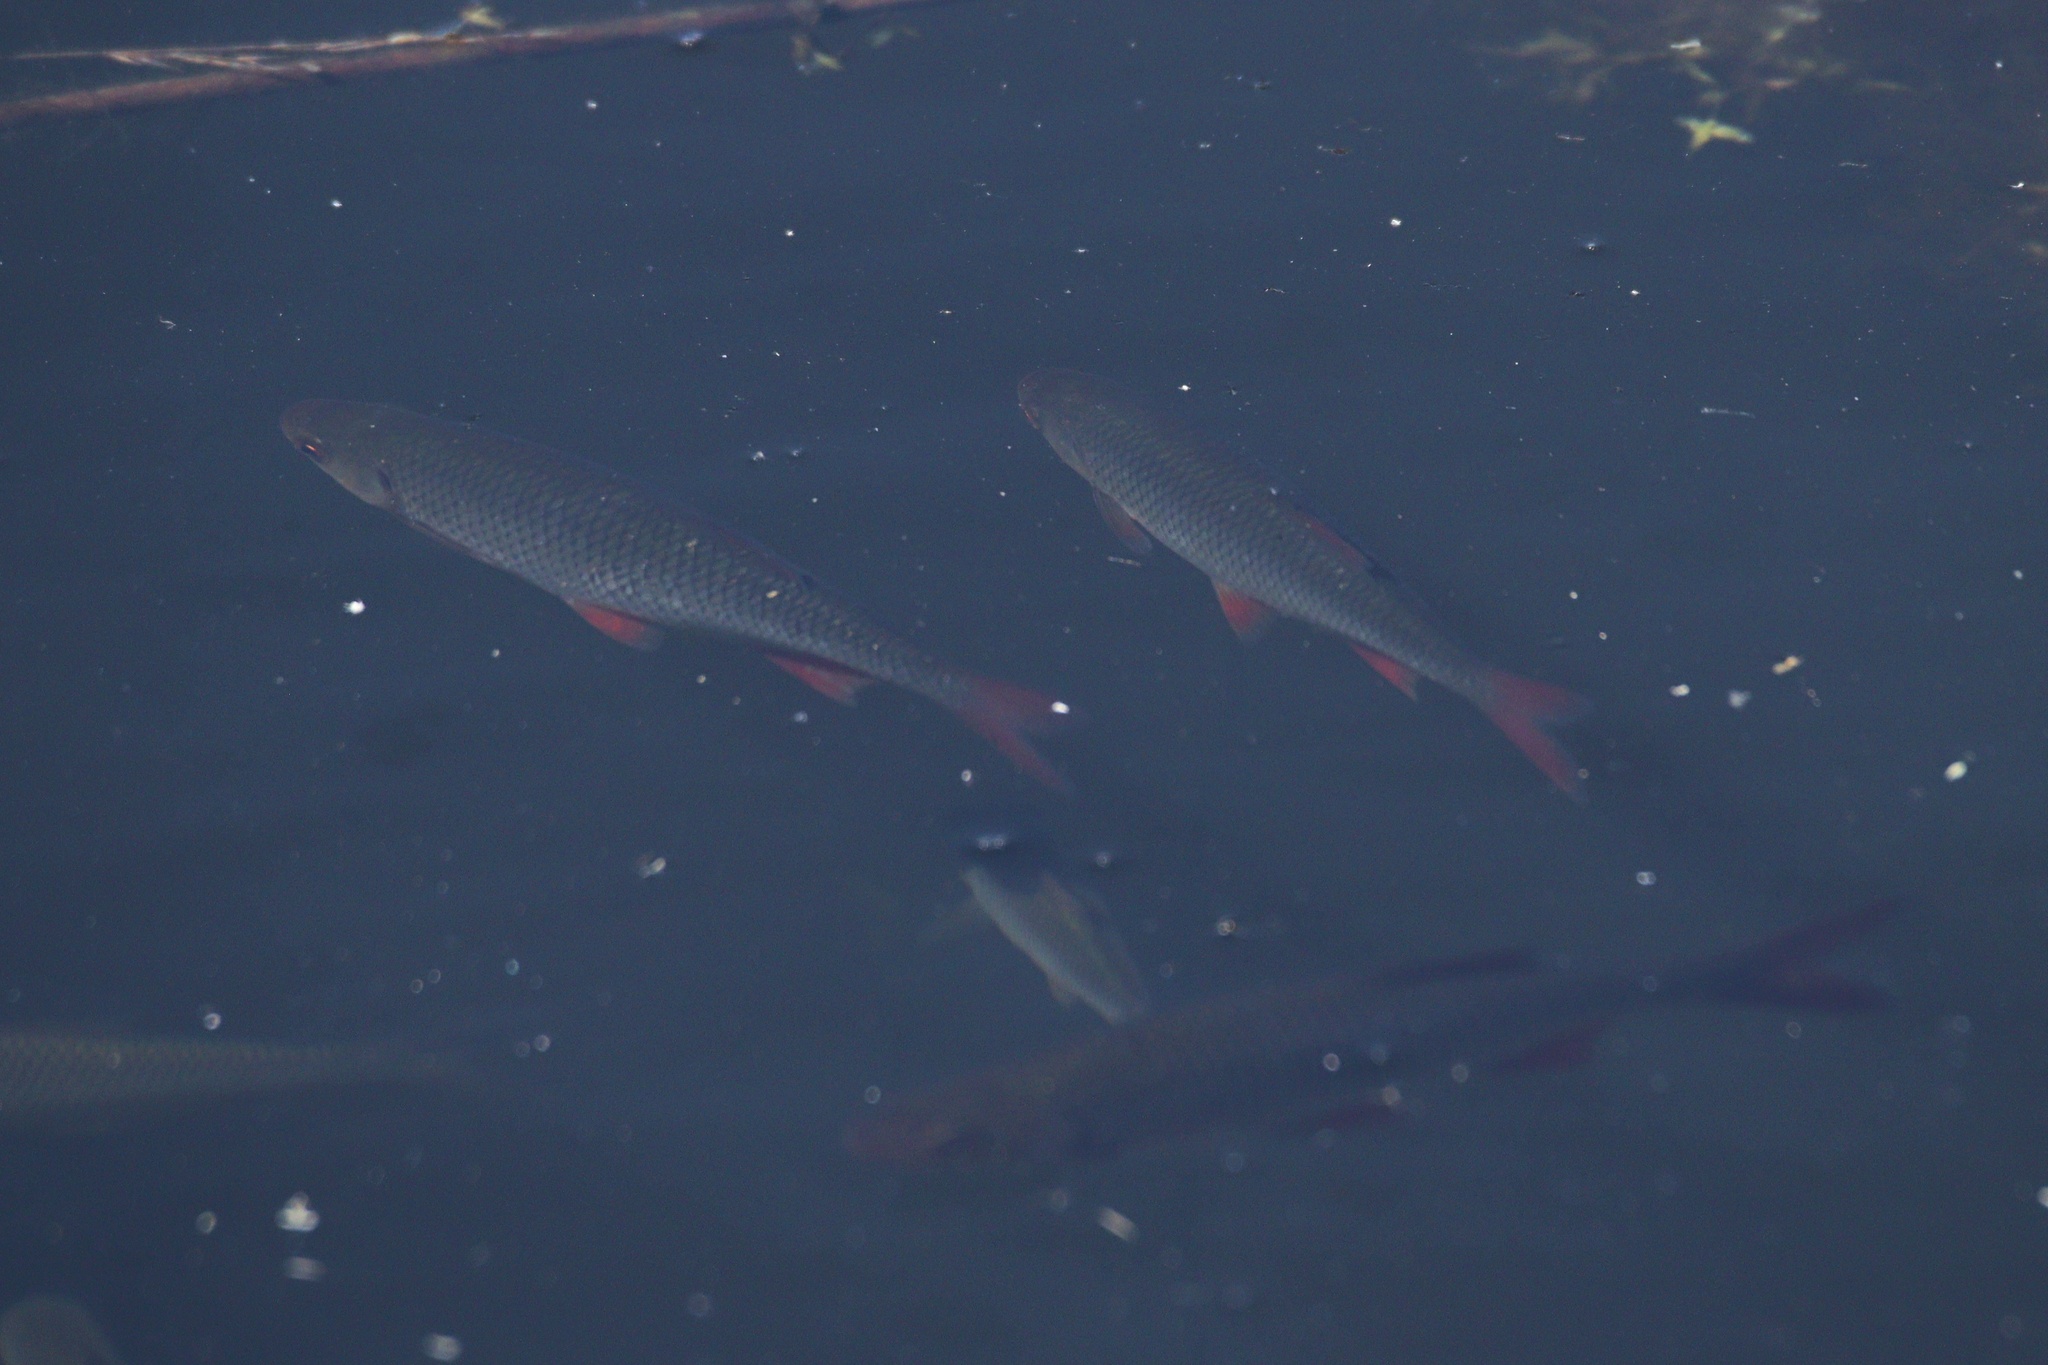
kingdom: Animalia
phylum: Chordata
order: Cypriniformes
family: Cyprinidae
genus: Rutilus
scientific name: Rutilus rutilus
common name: Roach
